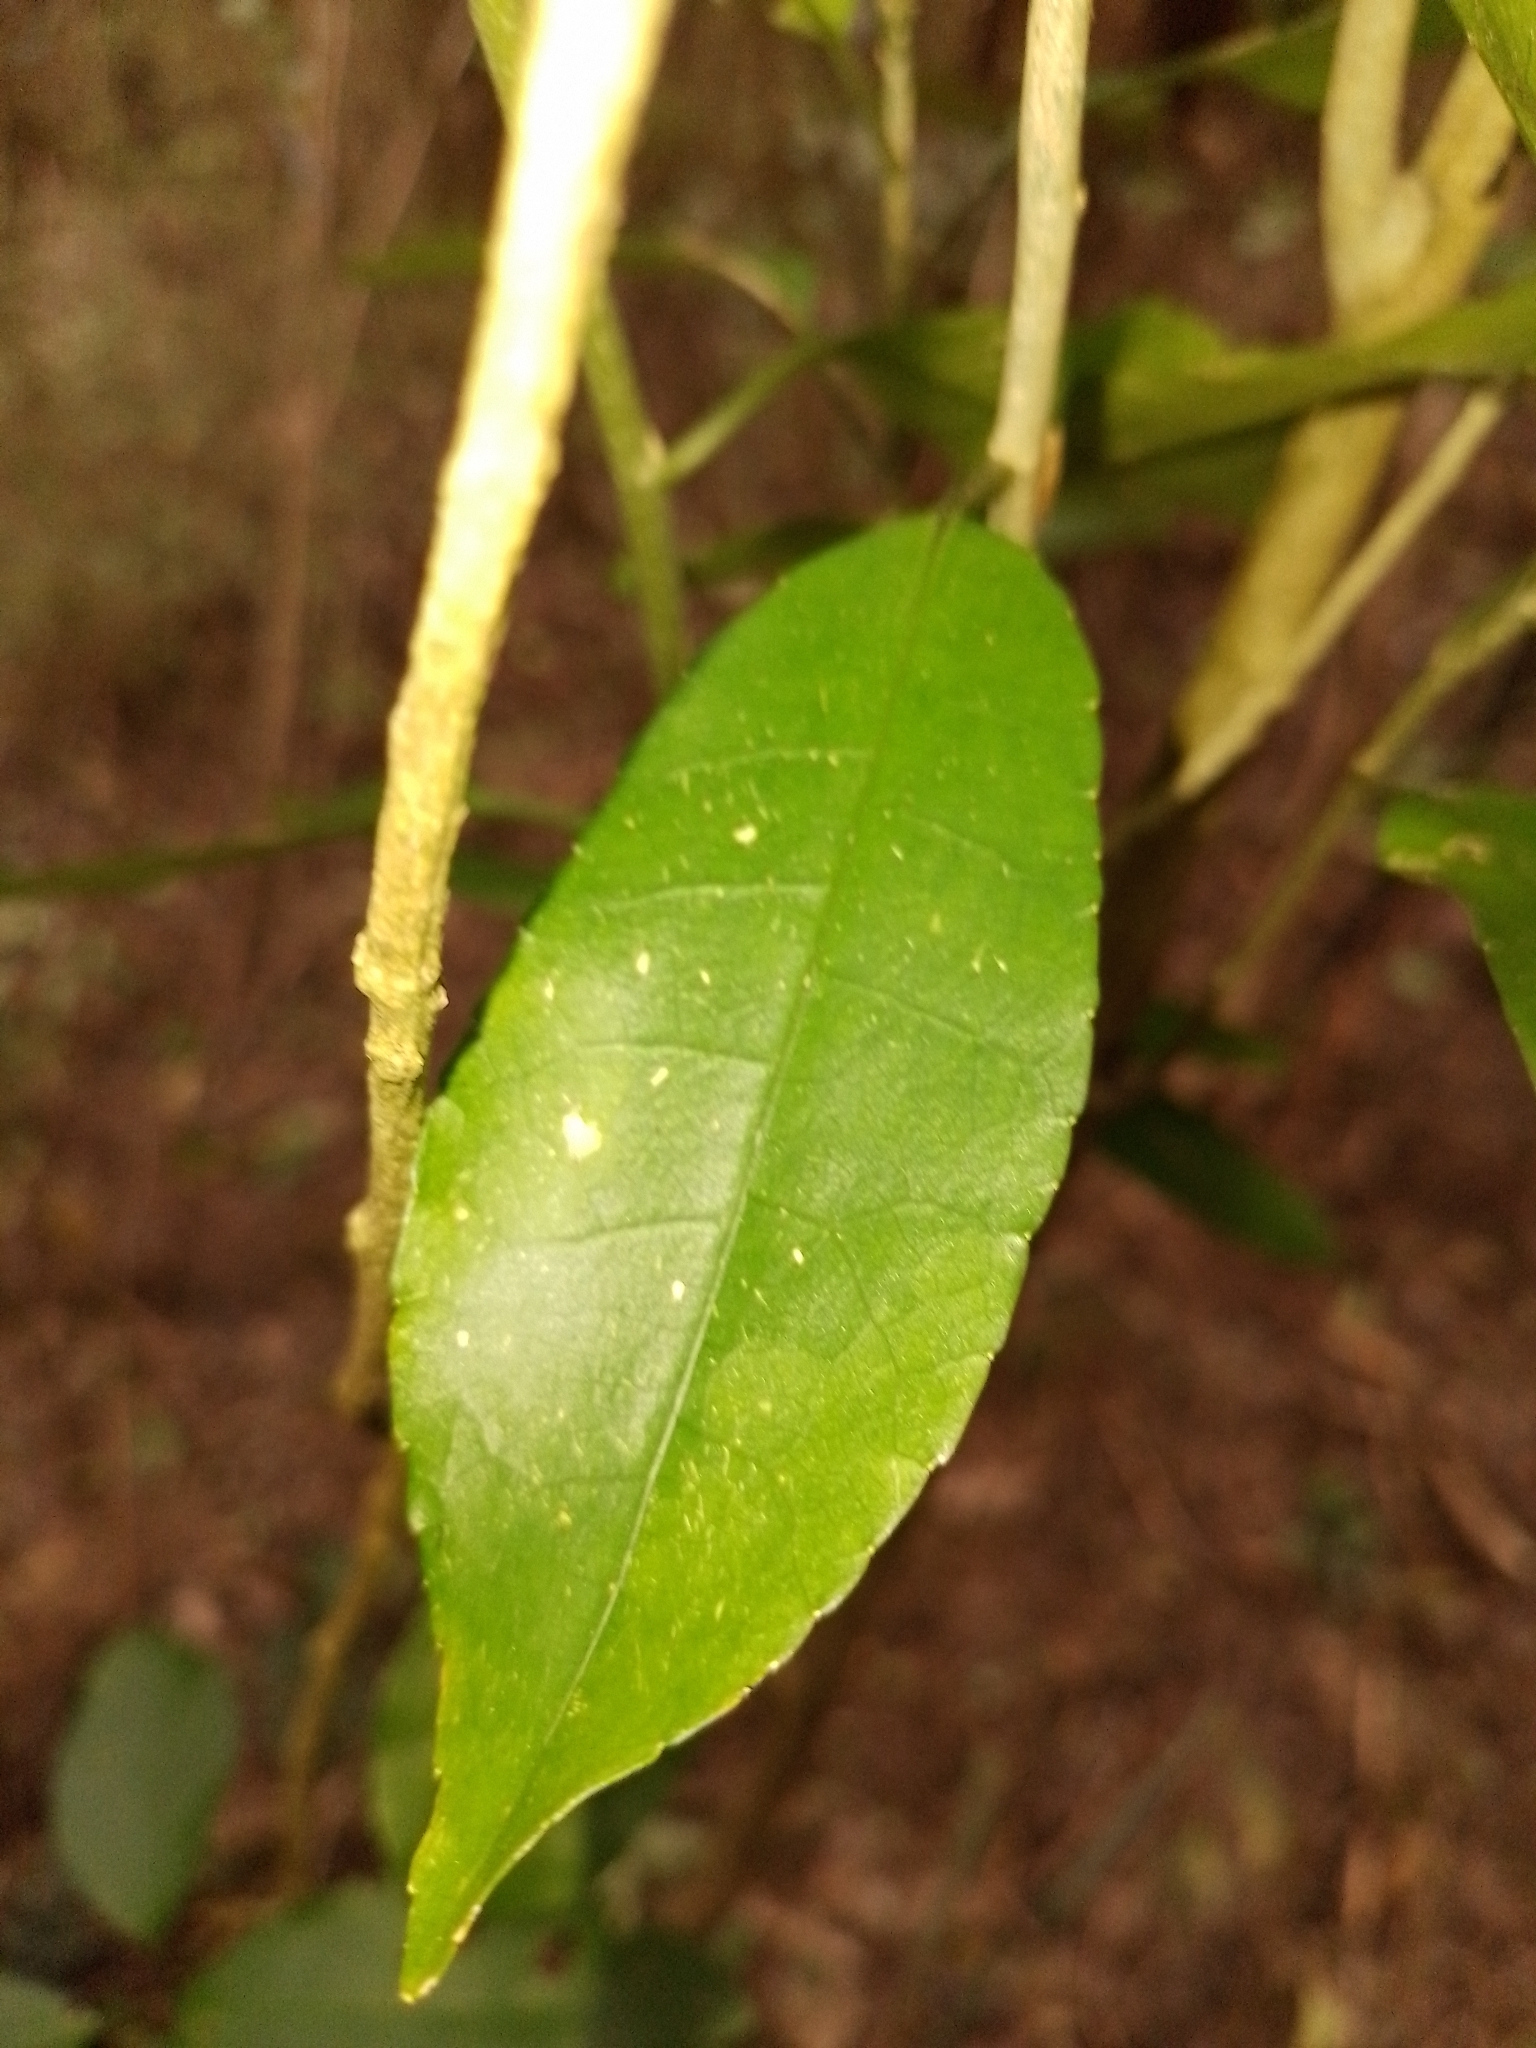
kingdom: Plantae
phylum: Tracheophyta
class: Magnoliopsida
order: Malpighiales
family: Violaceae
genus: Melicytus
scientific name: Melicytus ramiflorus
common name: Mahoe
